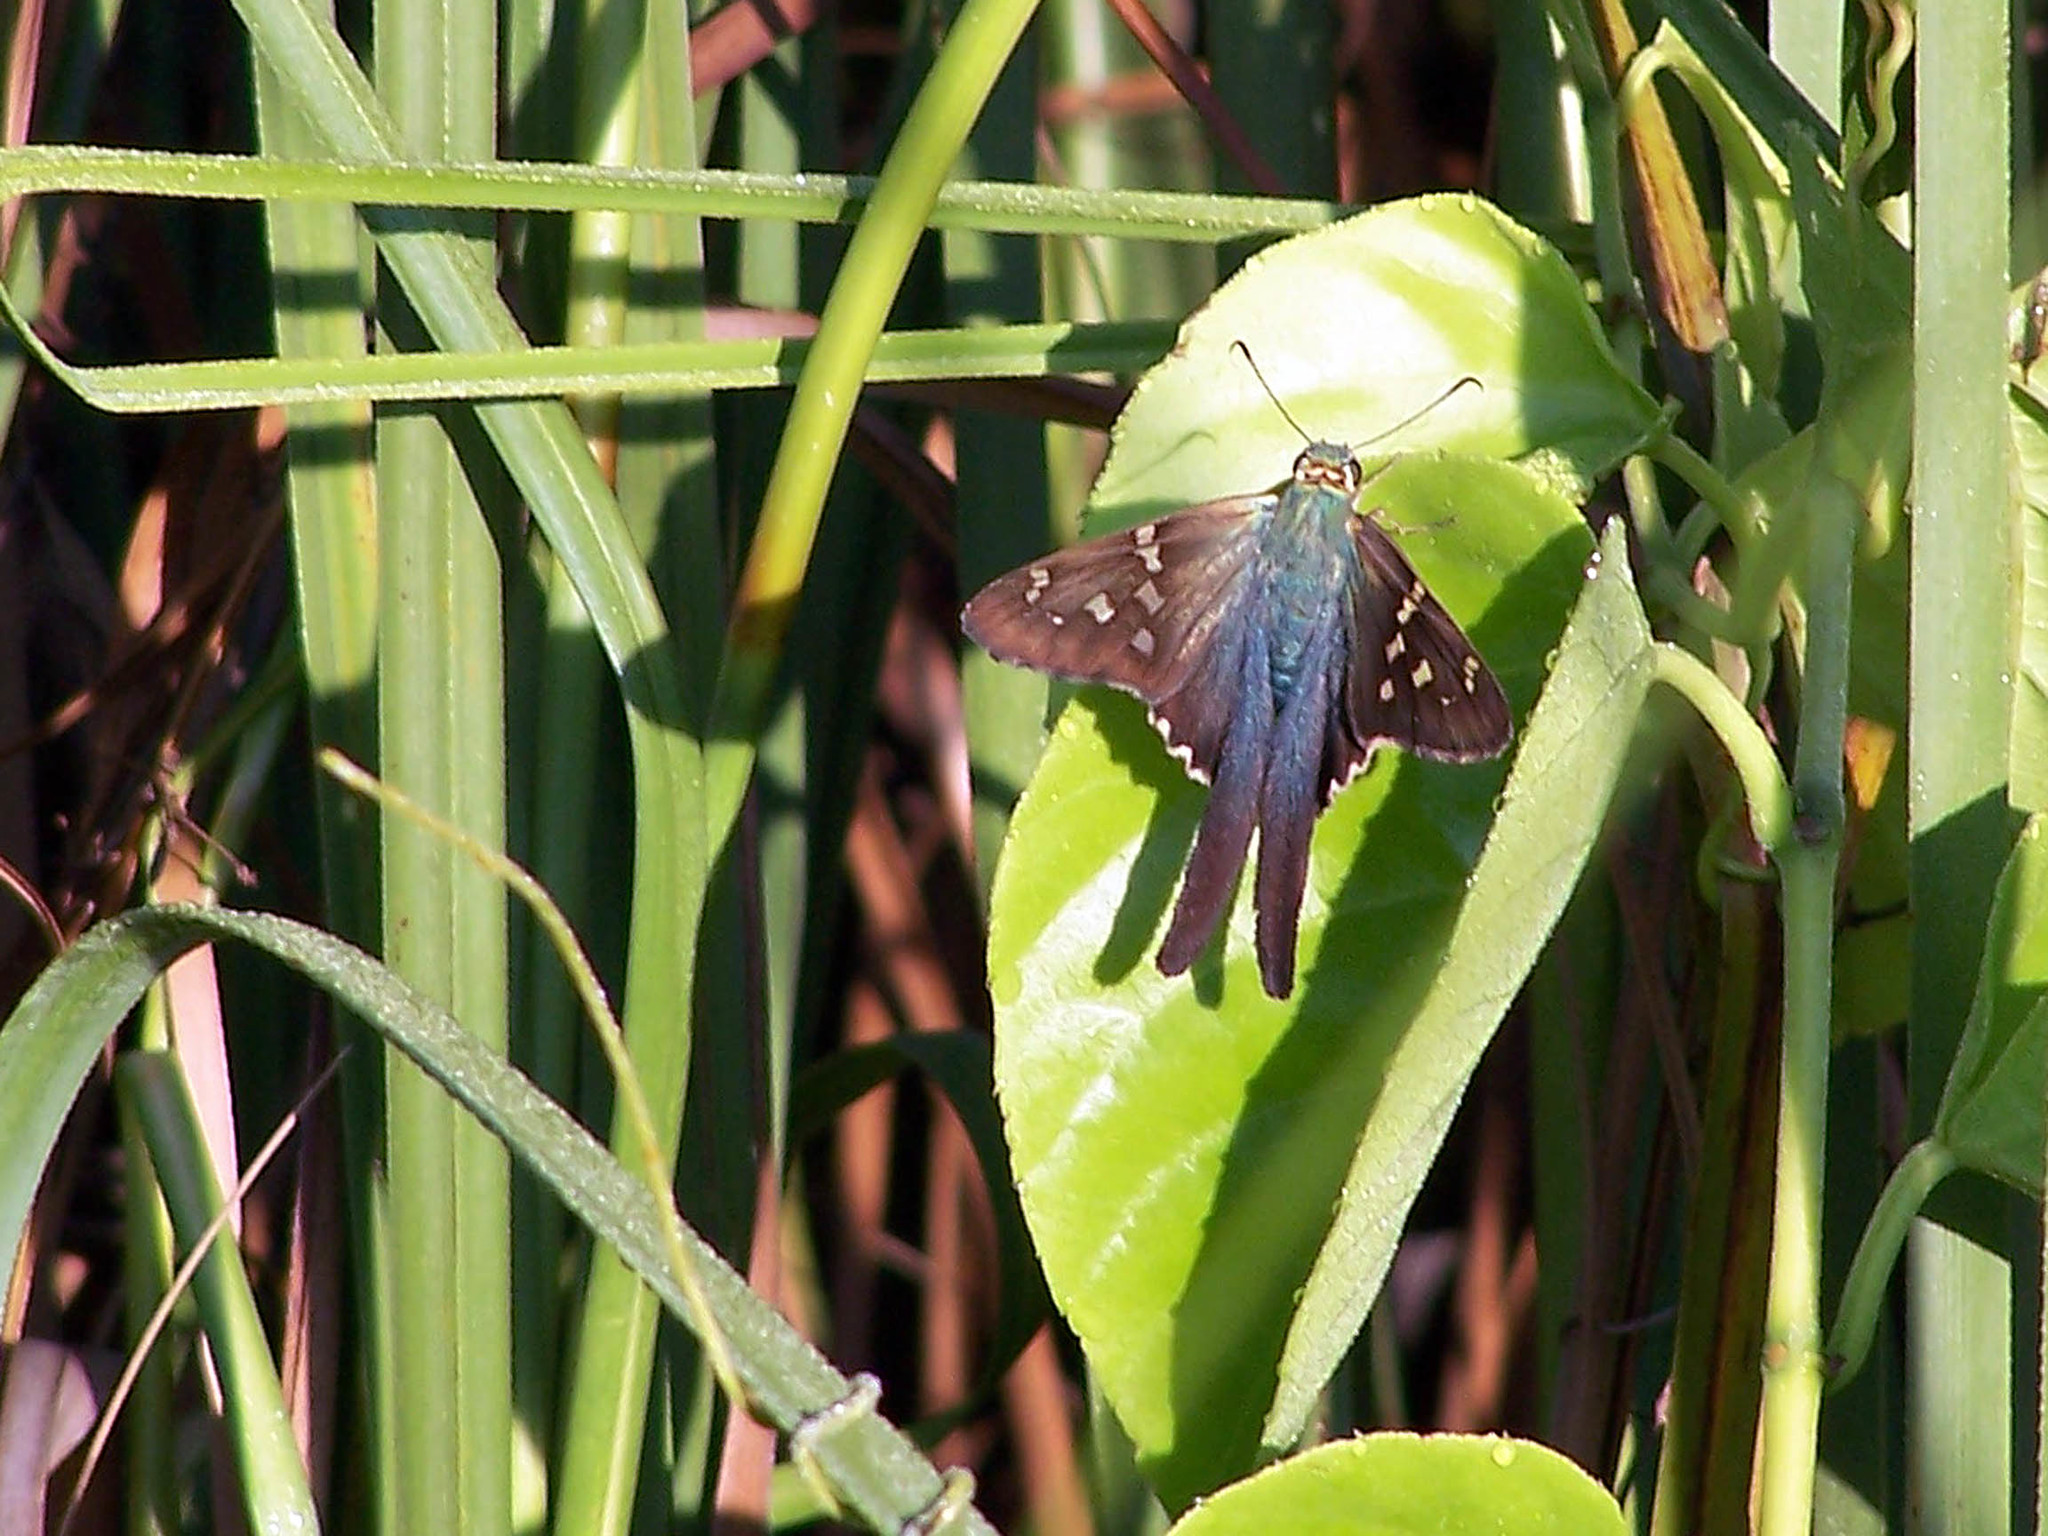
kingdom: Animalia
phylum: Arthropoda
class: Insecta
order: Lepidoptera
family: Hesperiidae
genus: Urbanus
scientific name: Urbanus proteus
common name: Long-tailed skipper
